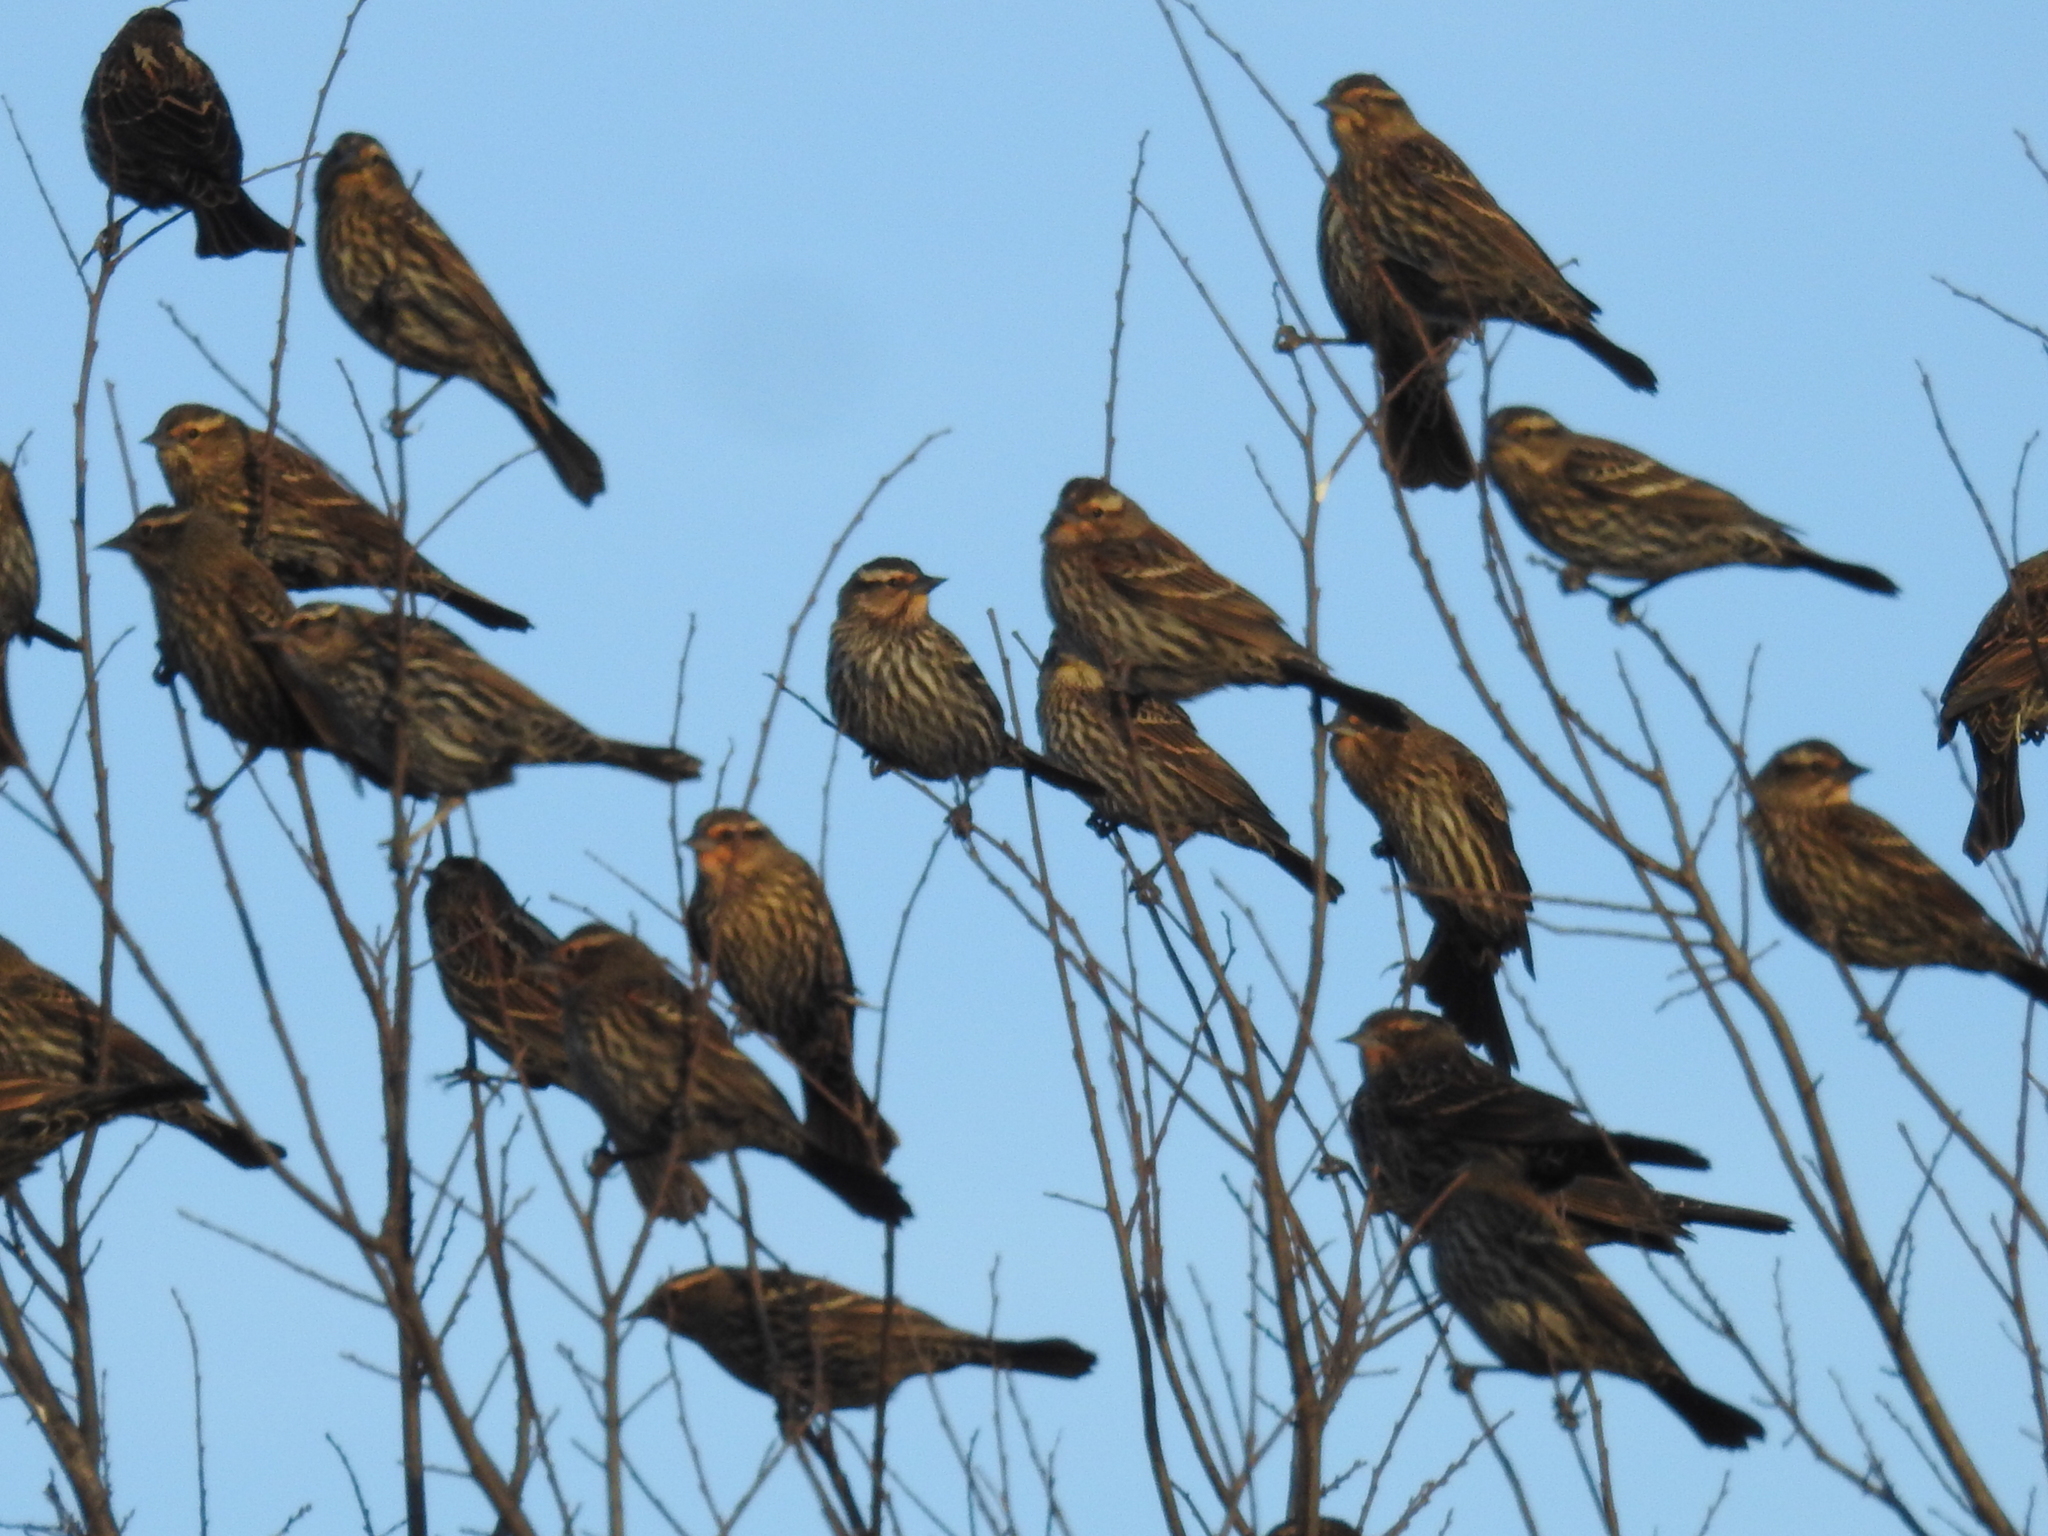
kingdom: Animalia
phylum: Chordata
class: Aves
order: Passeriformes
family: Icteridae
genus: Agelaius
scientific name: Agelaius phoeniceus
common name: Red-winged blackbird
